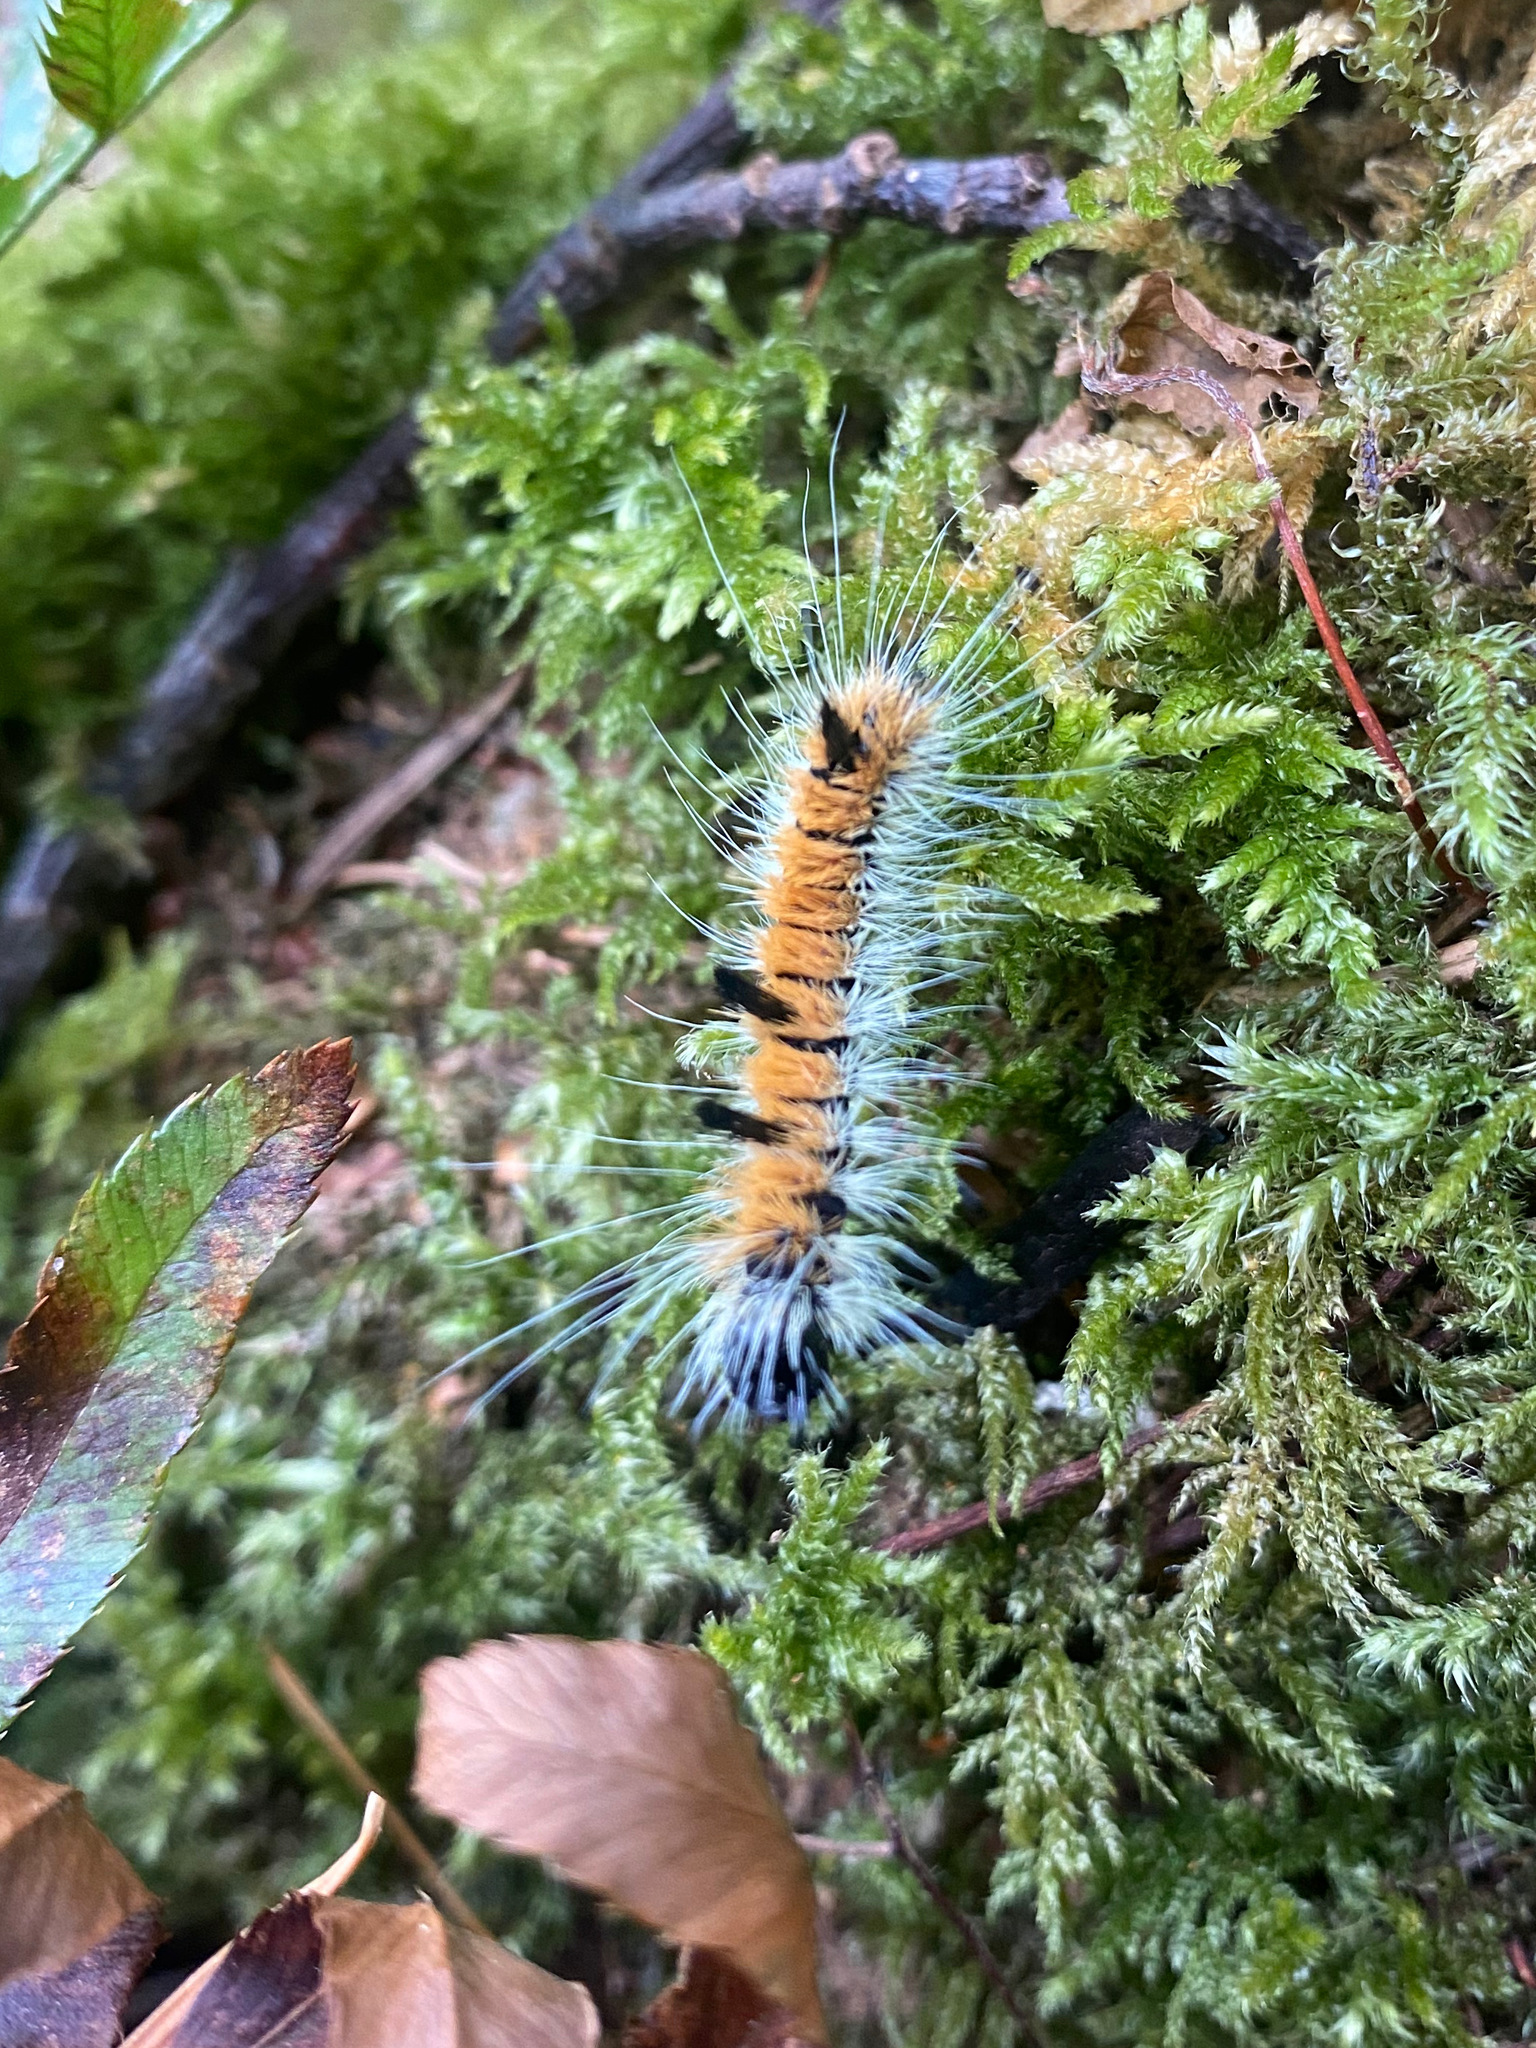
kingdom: Animalia
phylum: Arthropoda
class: Insecta
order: Lepidoptera
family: Noctuidae
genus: Acronicta
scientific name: Acronicta insita
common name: Large gray dagger
